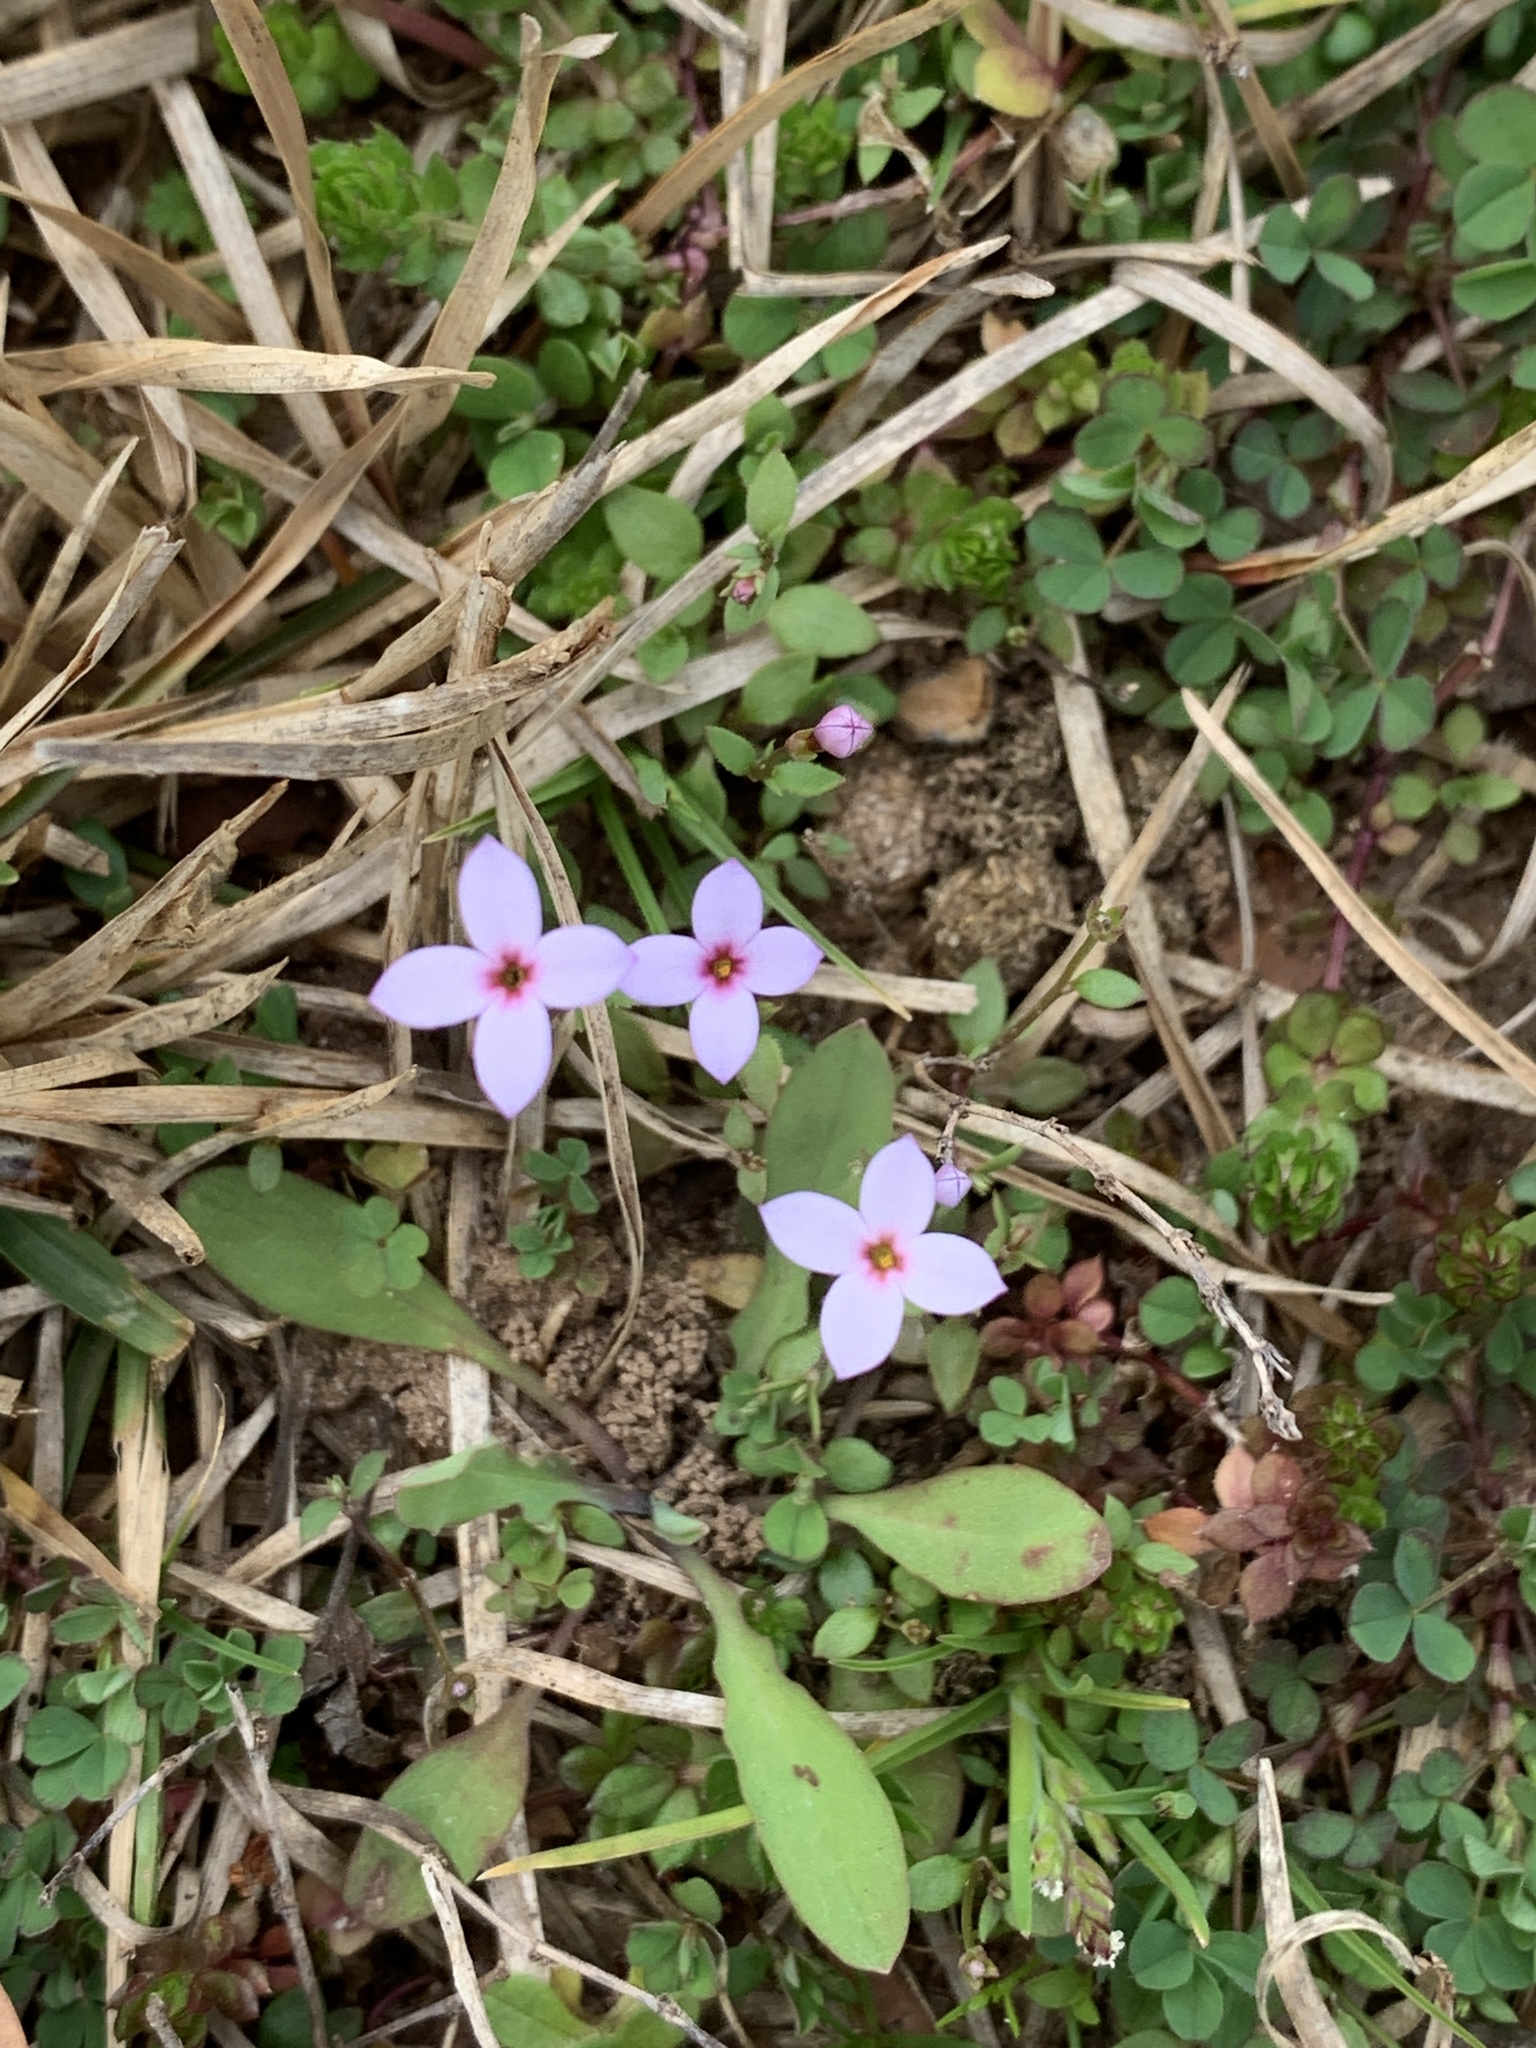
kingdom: Plantae
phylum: Tracheophyta
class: Magnoliopsida
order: Gentianales
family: Rubiaceae
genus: Houstonia
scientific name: Houstonia pusilla
